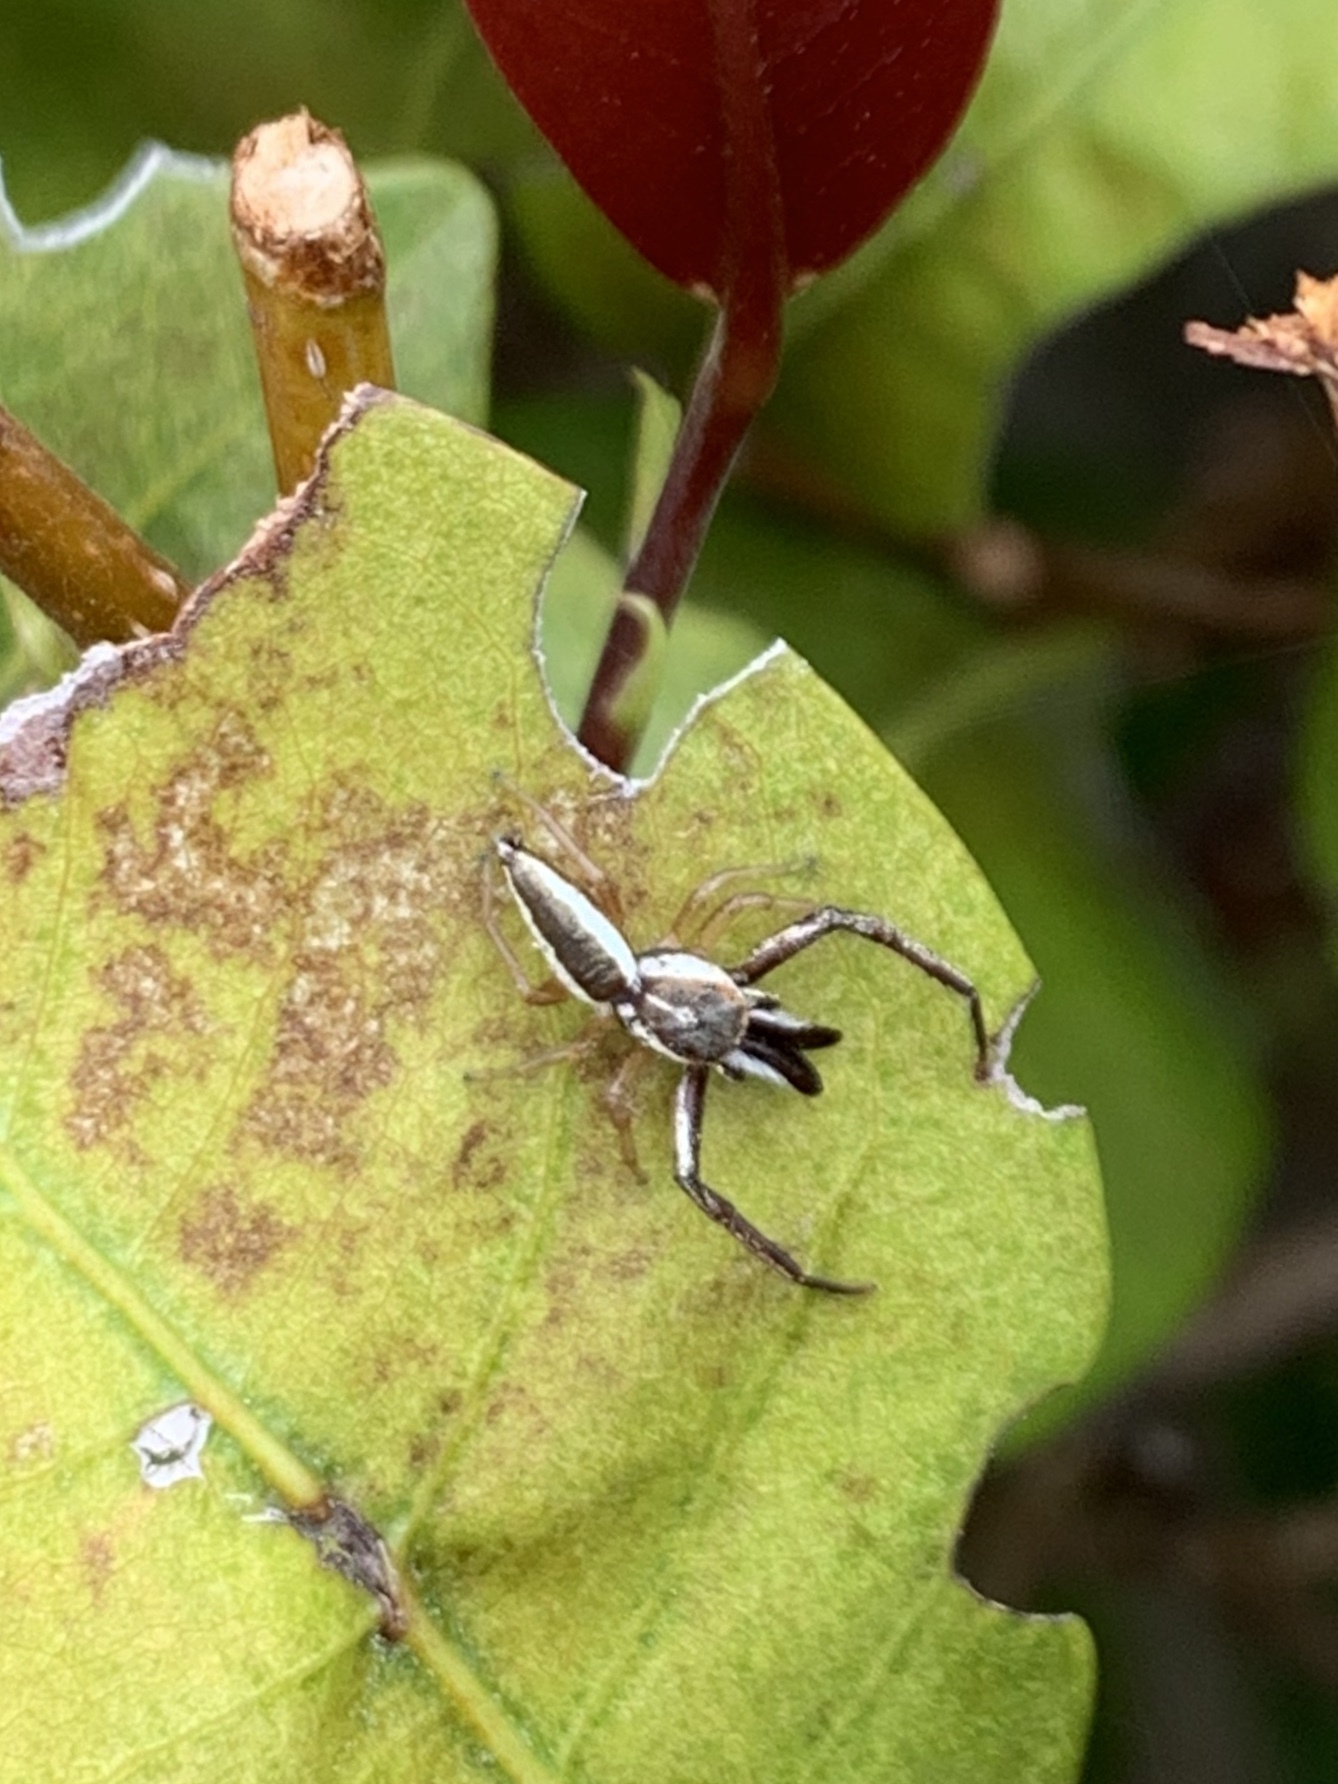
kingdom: Animalia
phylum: Arthropoda
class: Arachnida
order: Araneae
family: Salticidae
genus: Hentzia
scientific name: Hentzia palmarum
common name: Common hentz jumping spider
